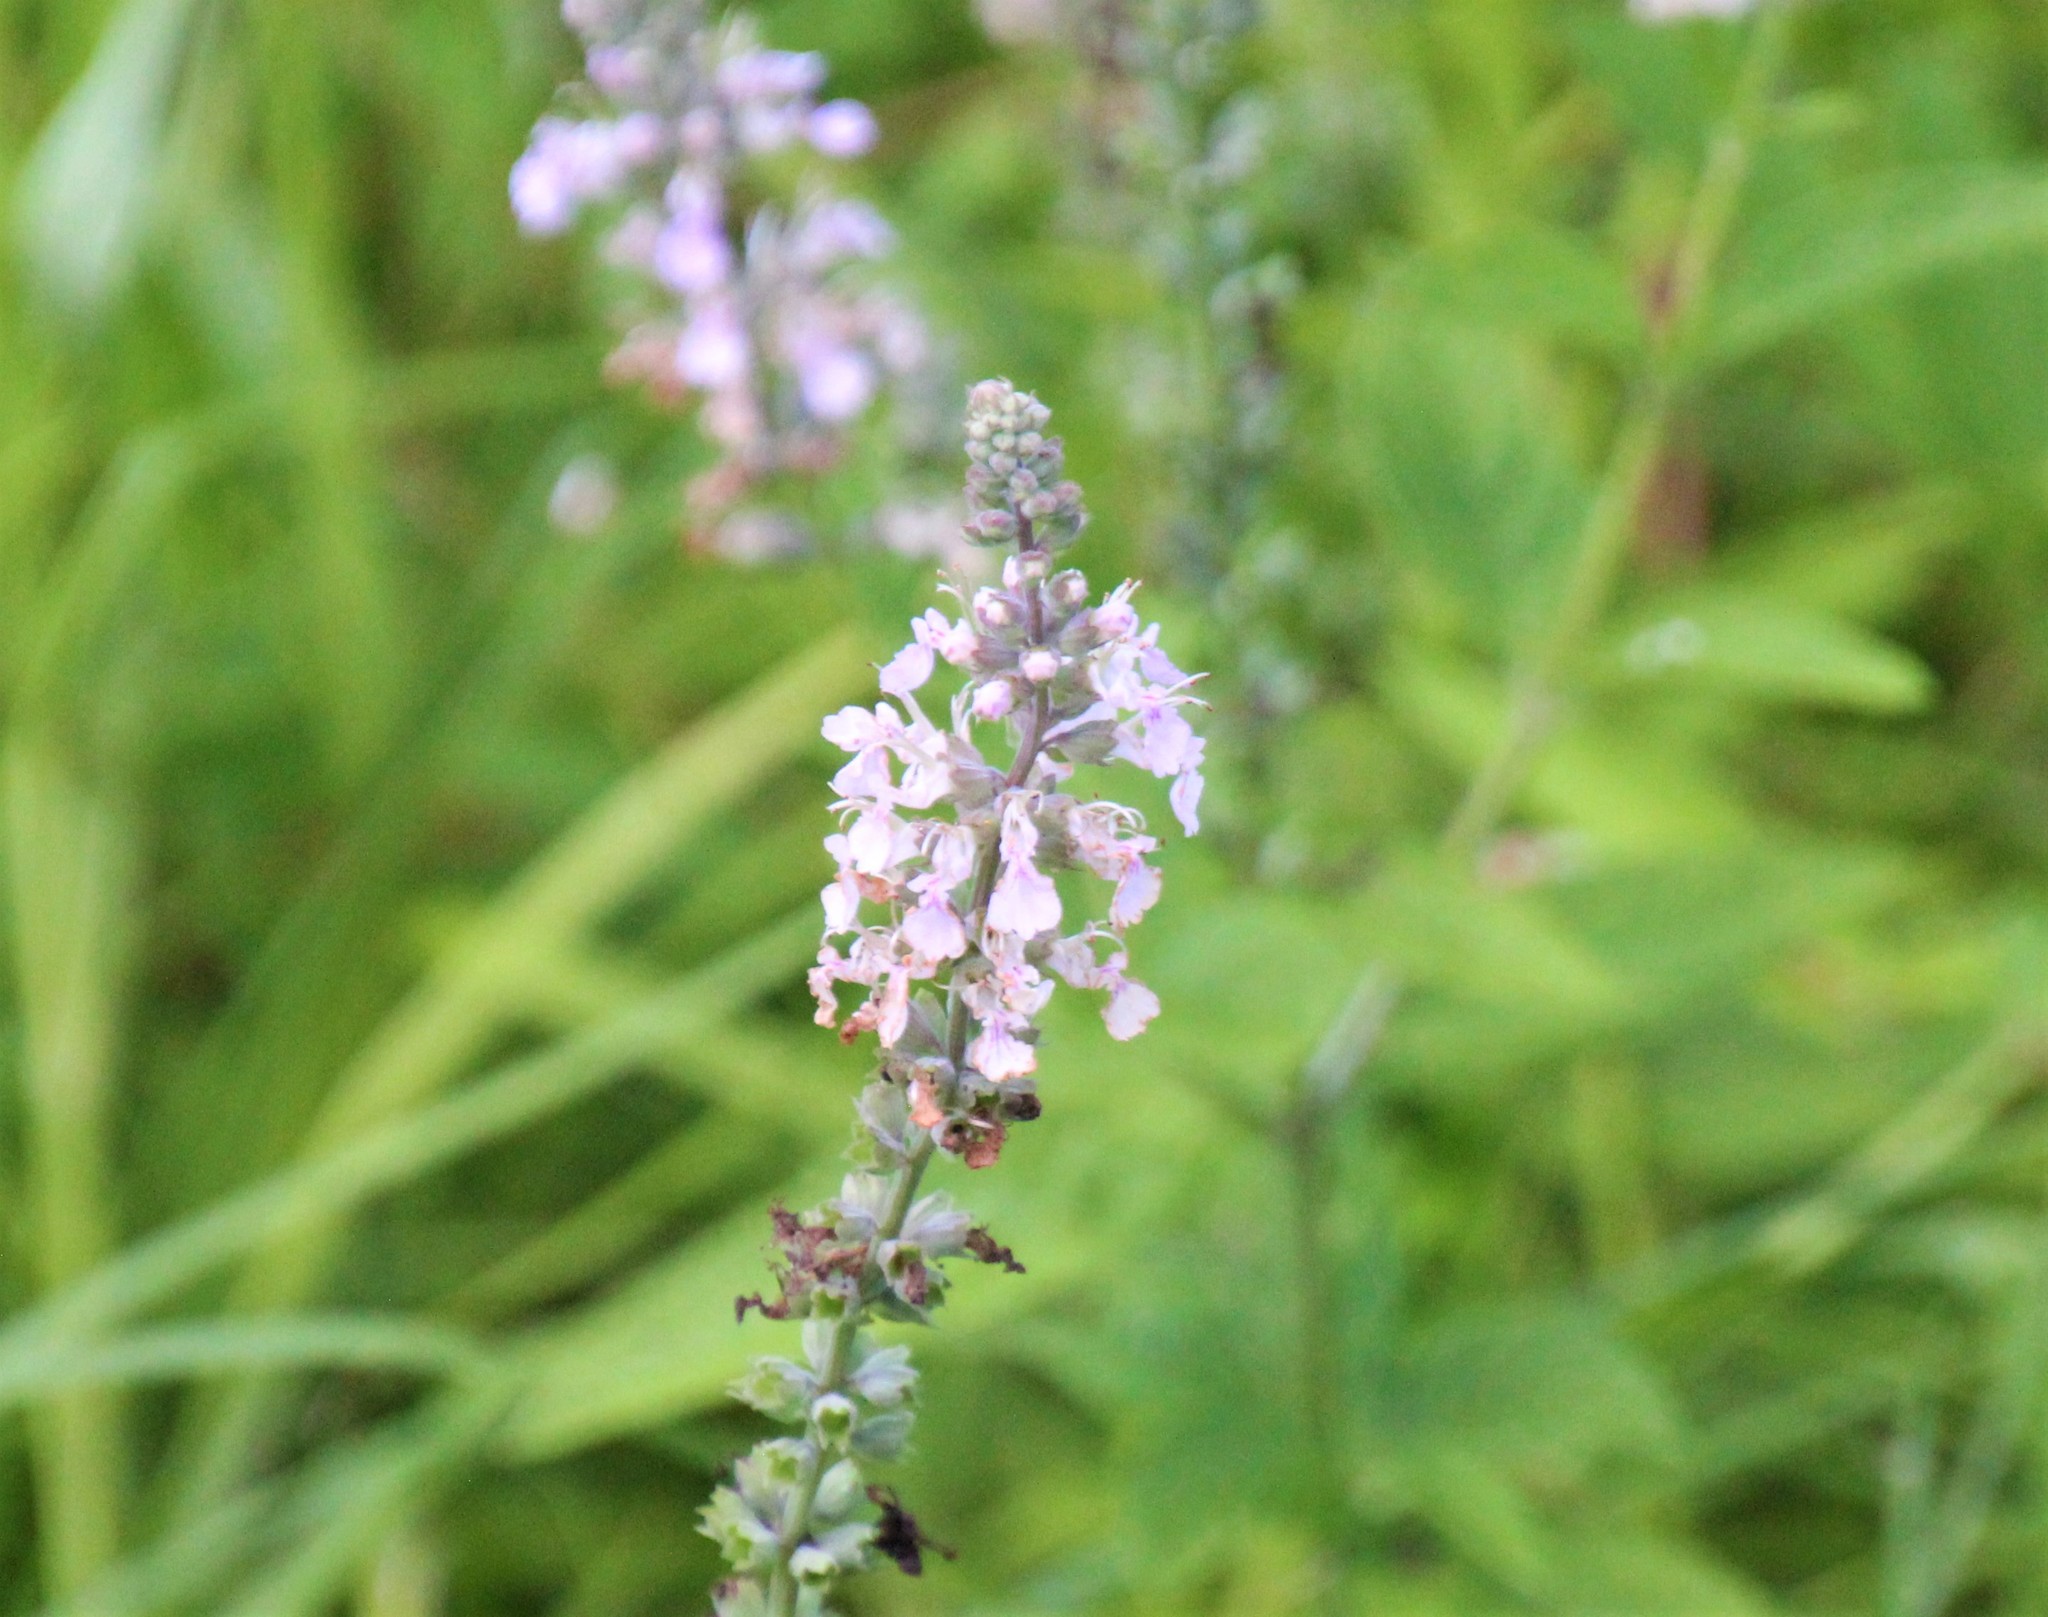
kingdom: Plantae
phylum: Tracheophyta
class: Magnoliopsida
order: Lamiales
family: Lamiaceae
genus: Teucrium
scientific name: Teucrium canadense
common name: American germander
